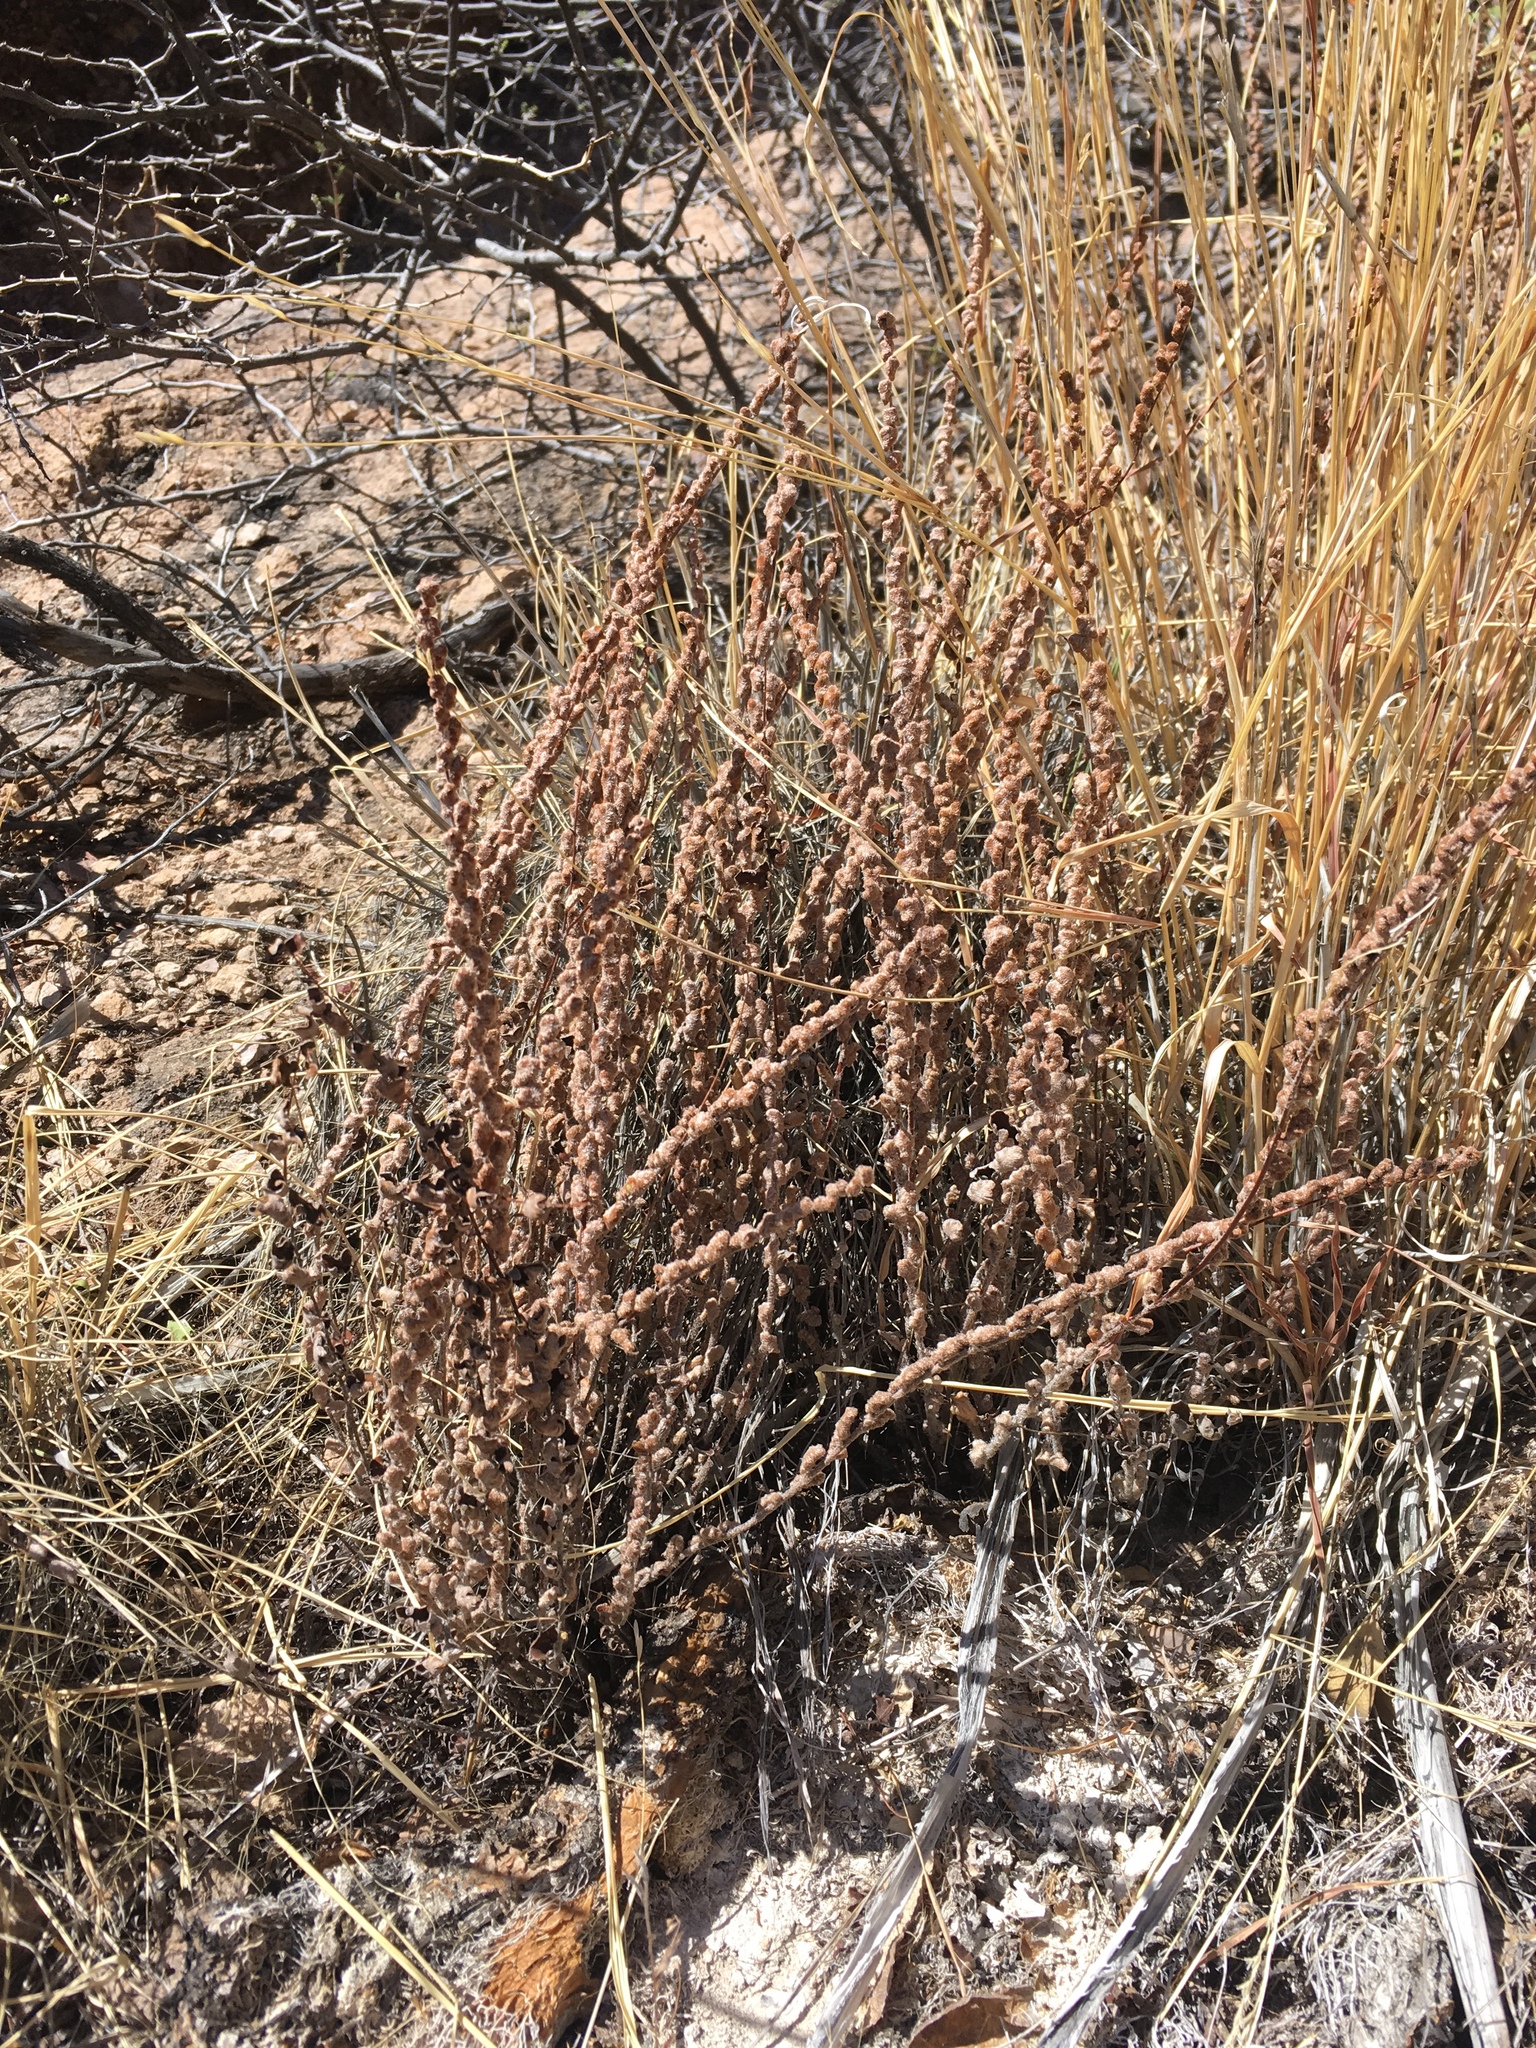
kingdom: Plantae
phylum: Tracheophyta
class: Polypodiopsida
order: Polypodiales
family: Pteridaceae
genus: Astrolepis
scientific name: Astrolepis sinuata
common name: Wavy scaly cloakfern
